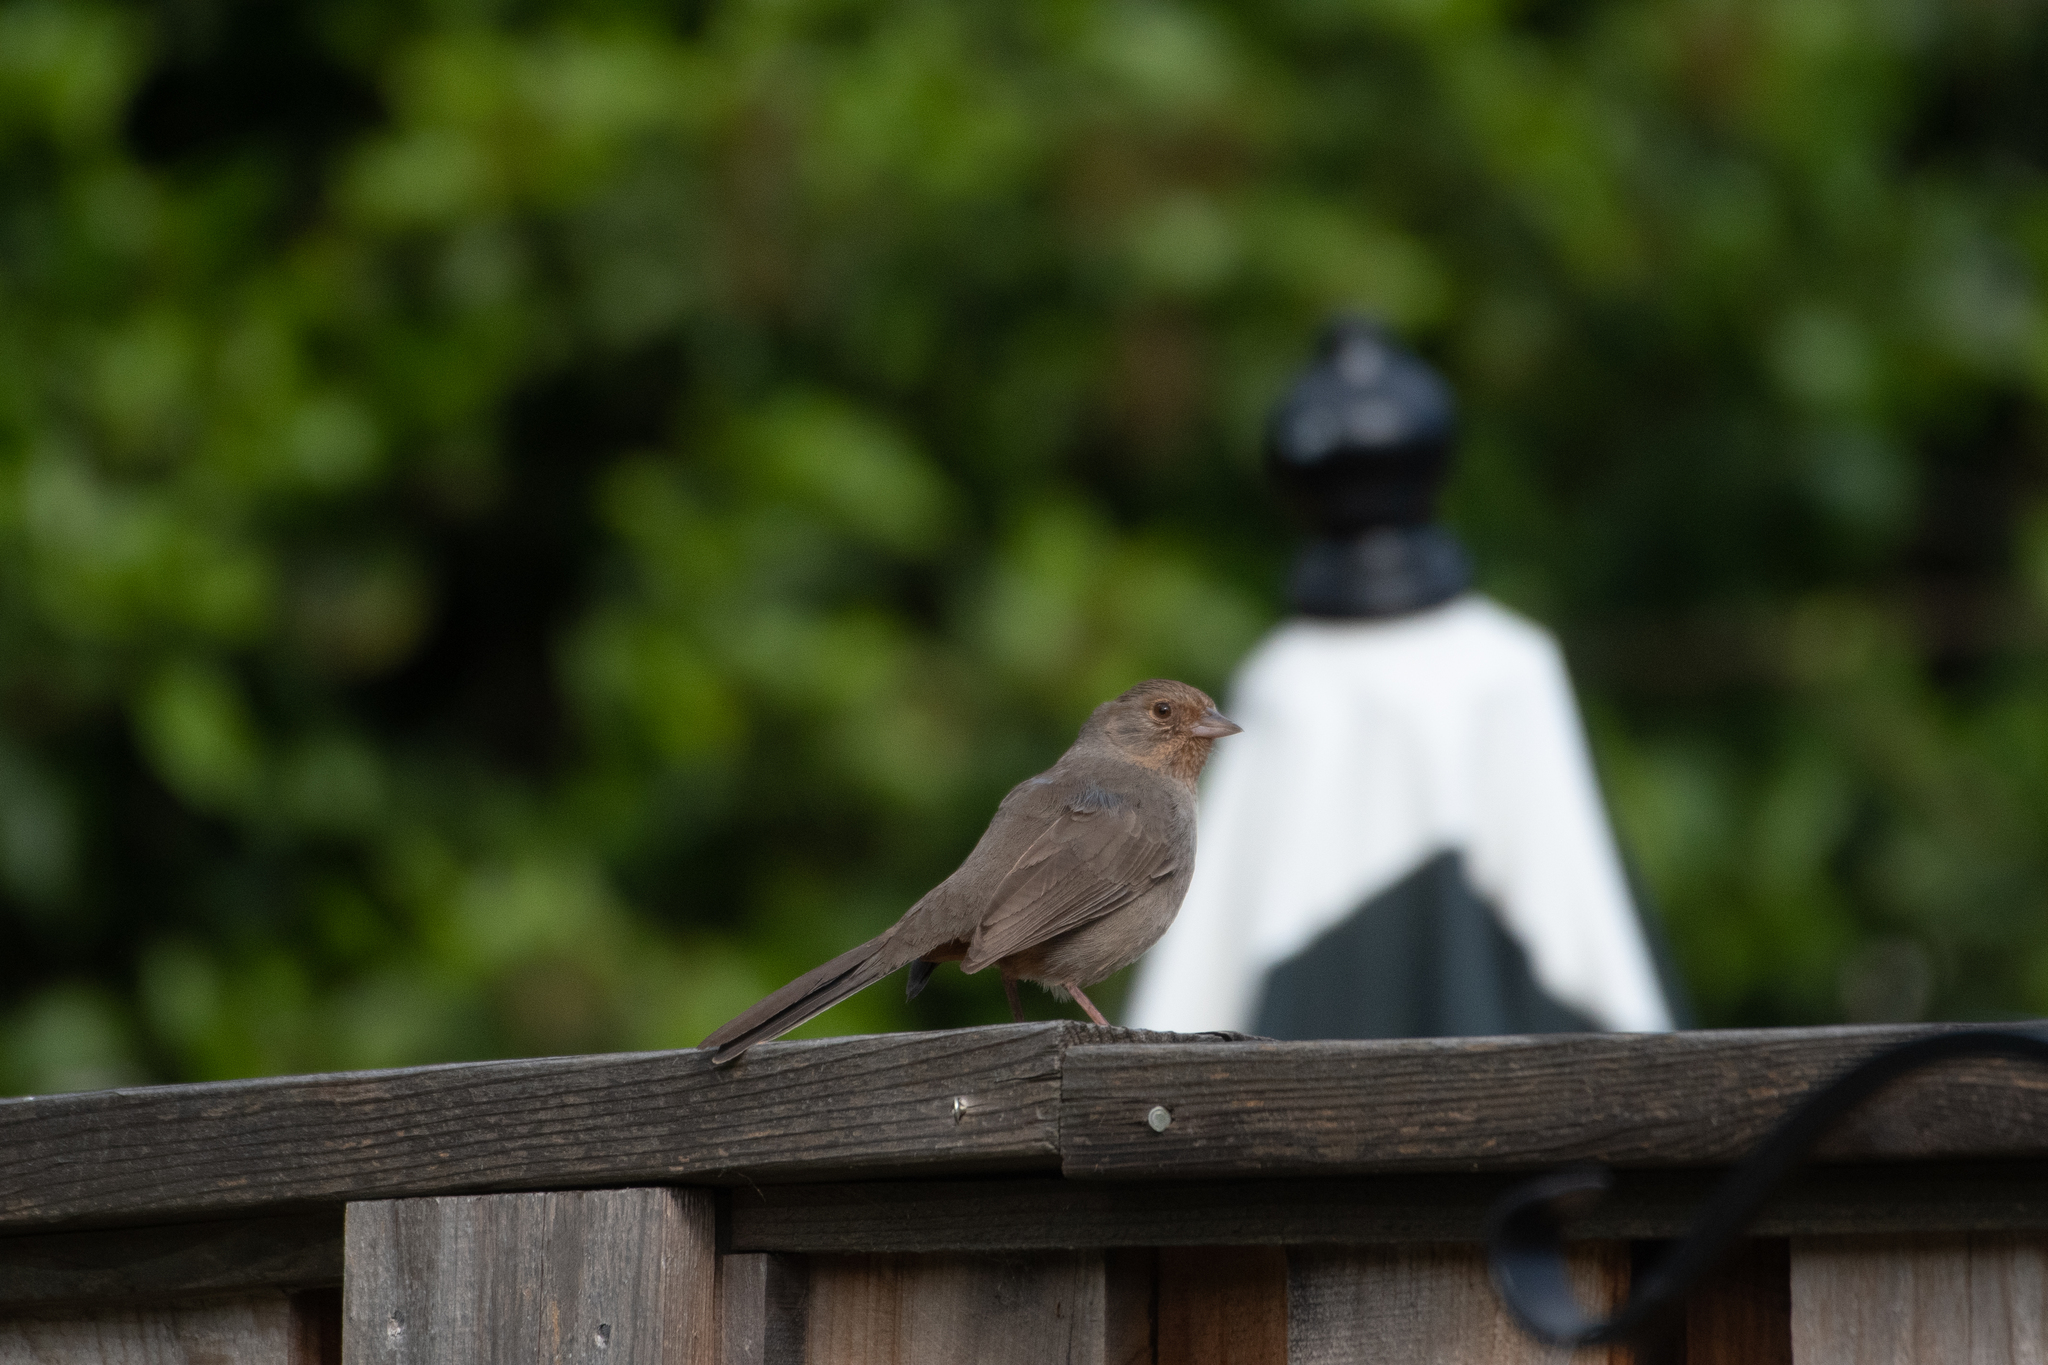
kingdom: Animalia
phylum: Chordata
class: Aves
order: Passeriformes
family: Passerellidae
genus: Melozone
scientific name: Melozone crissalis
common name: California towhee
